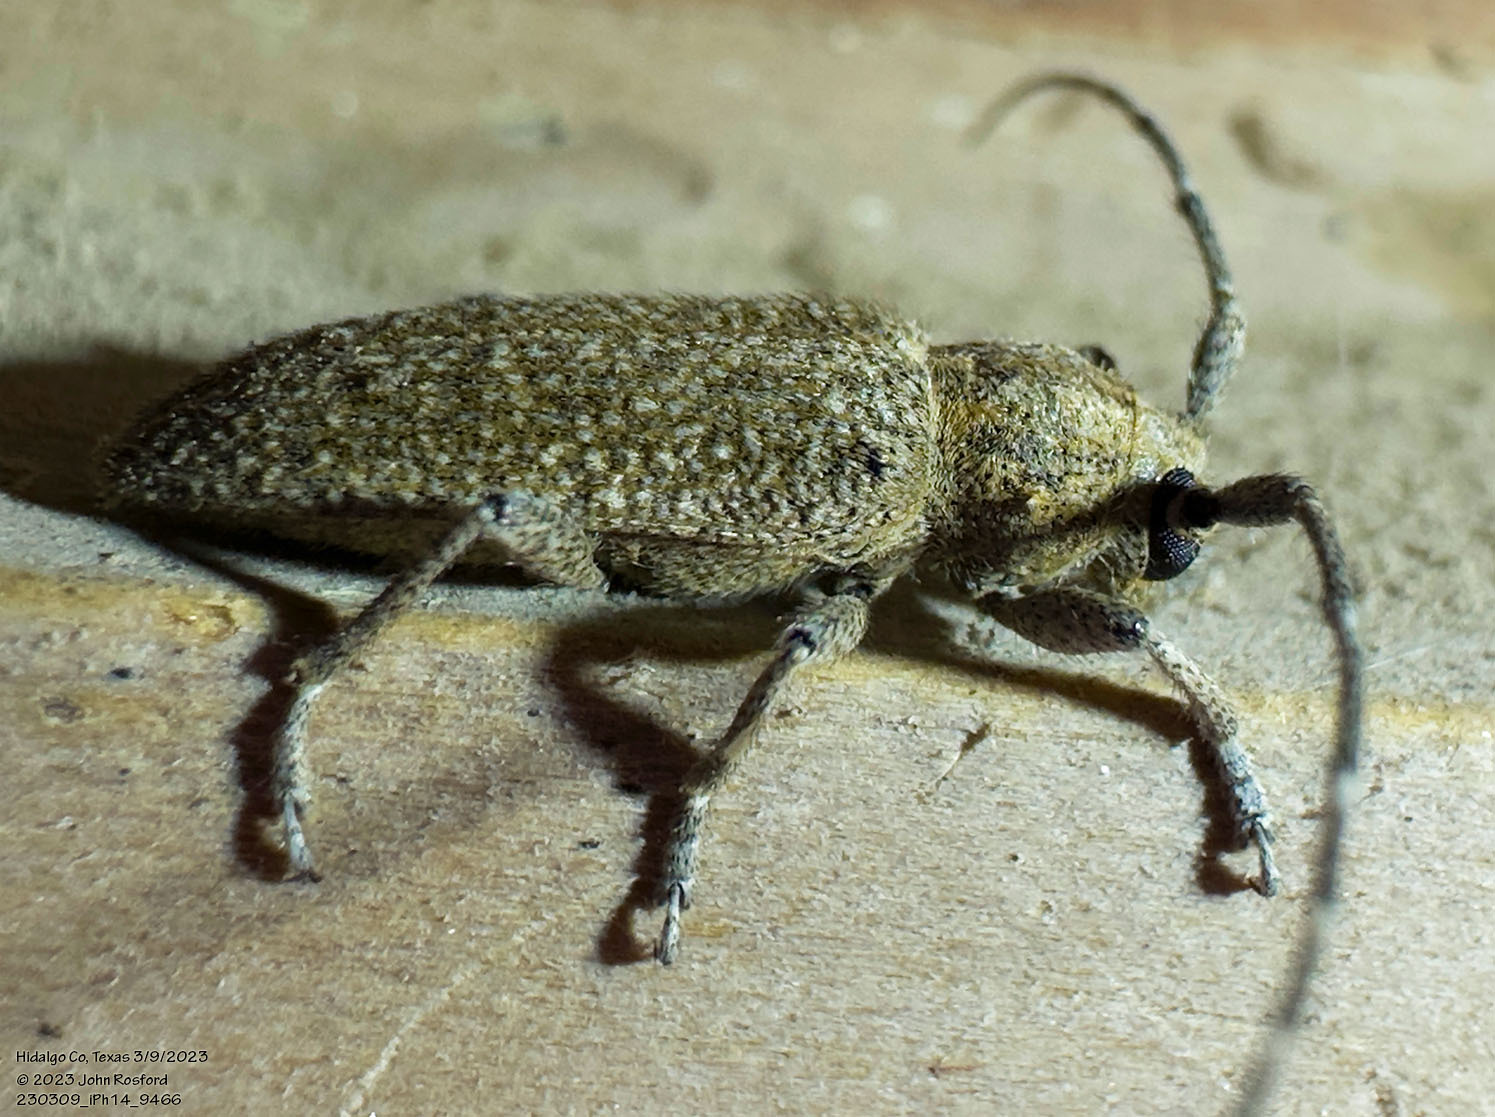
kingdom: Animalia
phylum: Arthropoda
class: Insecta
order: Coleoptera
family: Cerambycidae
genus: Ataxia
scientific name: Ataxia hubbardi
